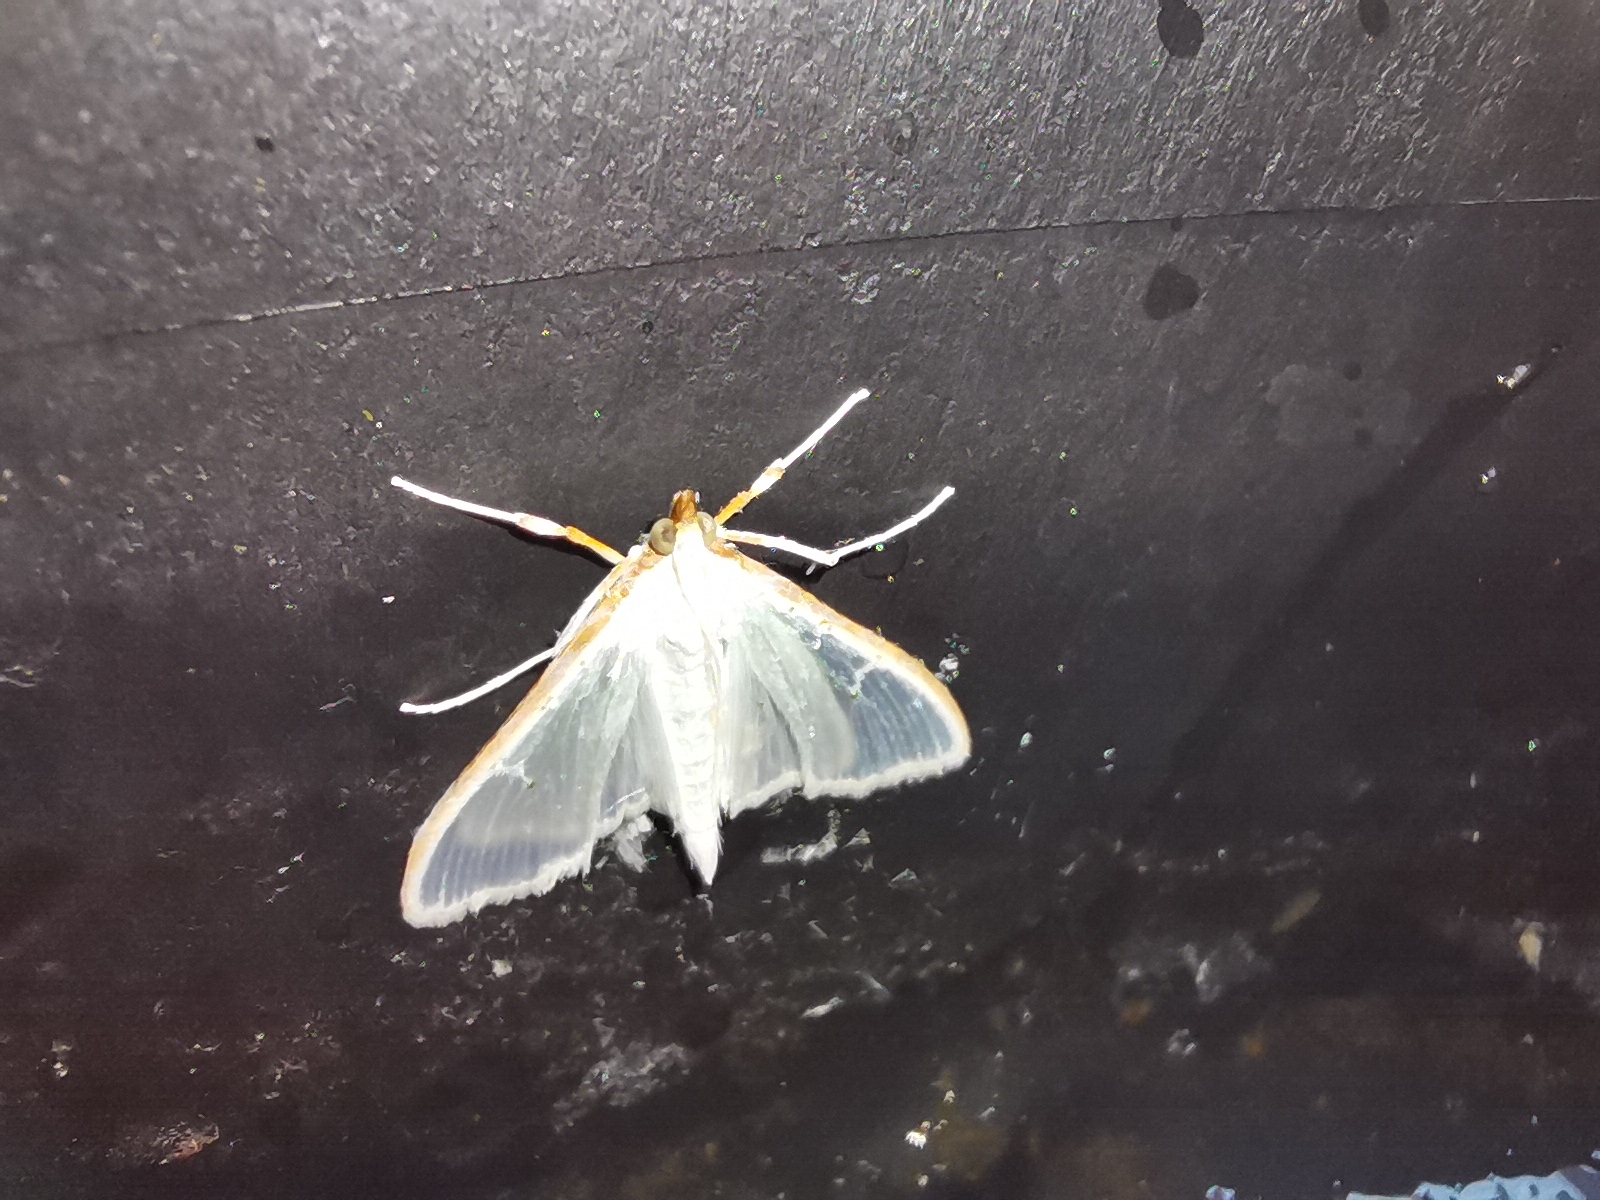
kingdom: Animalia
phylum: Arthropoda
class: Insecta
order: Lepidoptera
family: Crambidae
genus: Palpita
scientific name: Palpita vitrealis
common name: Olive-tree pearl
